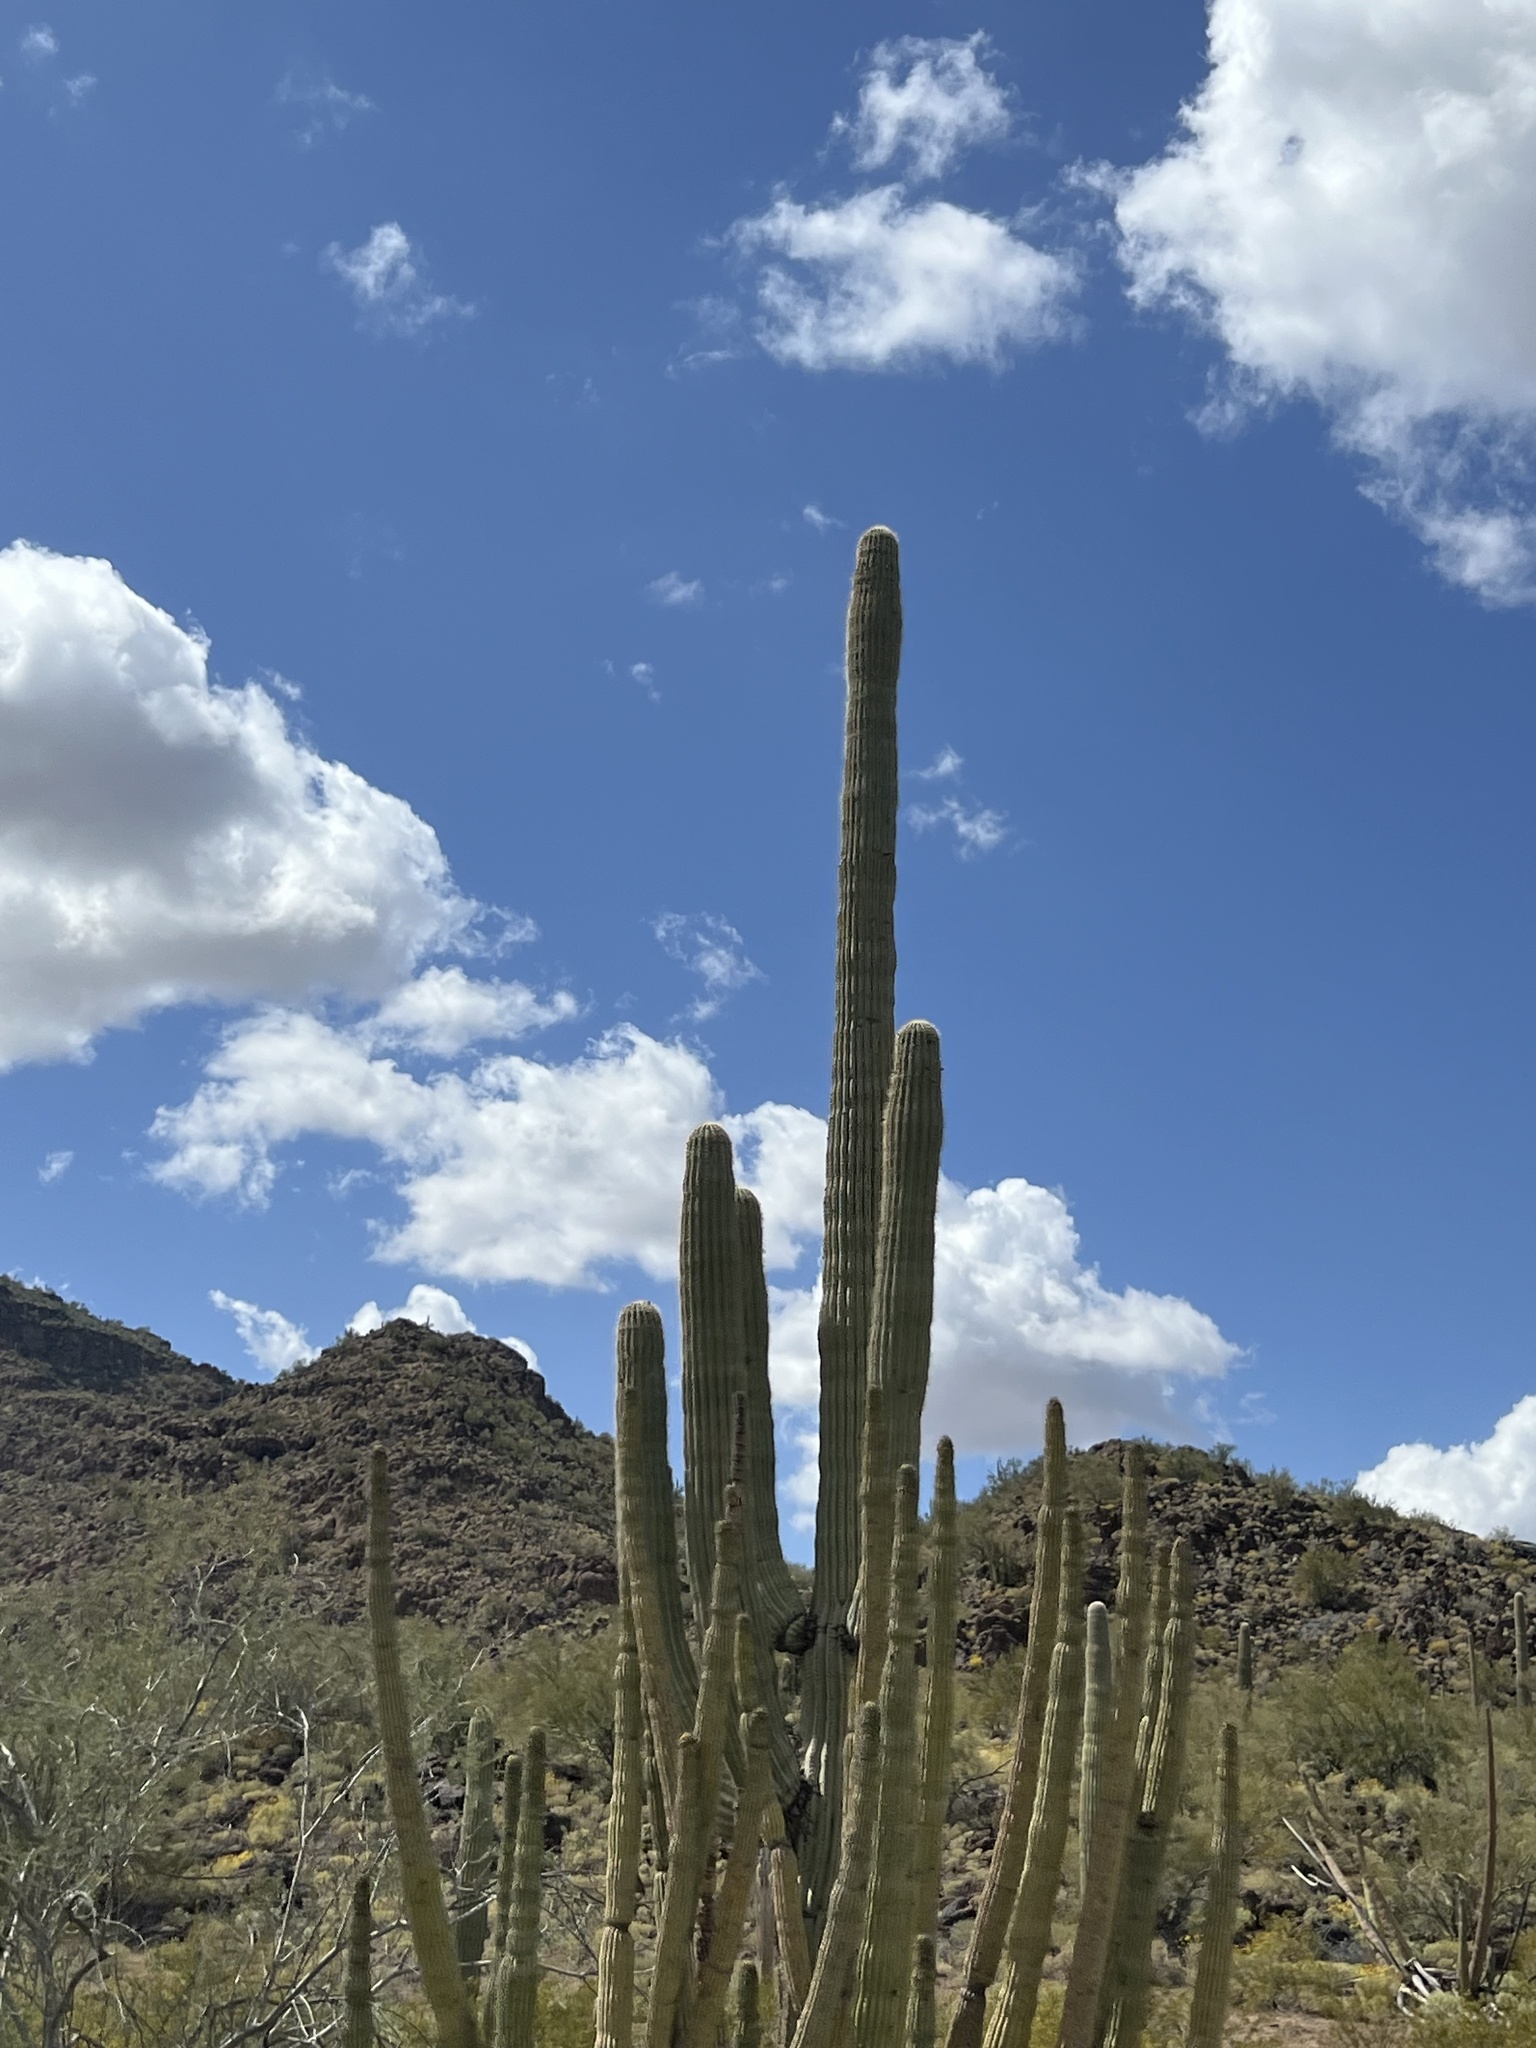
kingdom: Plantae
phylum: Tracheophyta
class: Magnoliopsida
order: Caryophyllales
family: Cactaceae
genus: Carnegiea
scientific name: Carnegiea gigantea
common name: Saguaro
